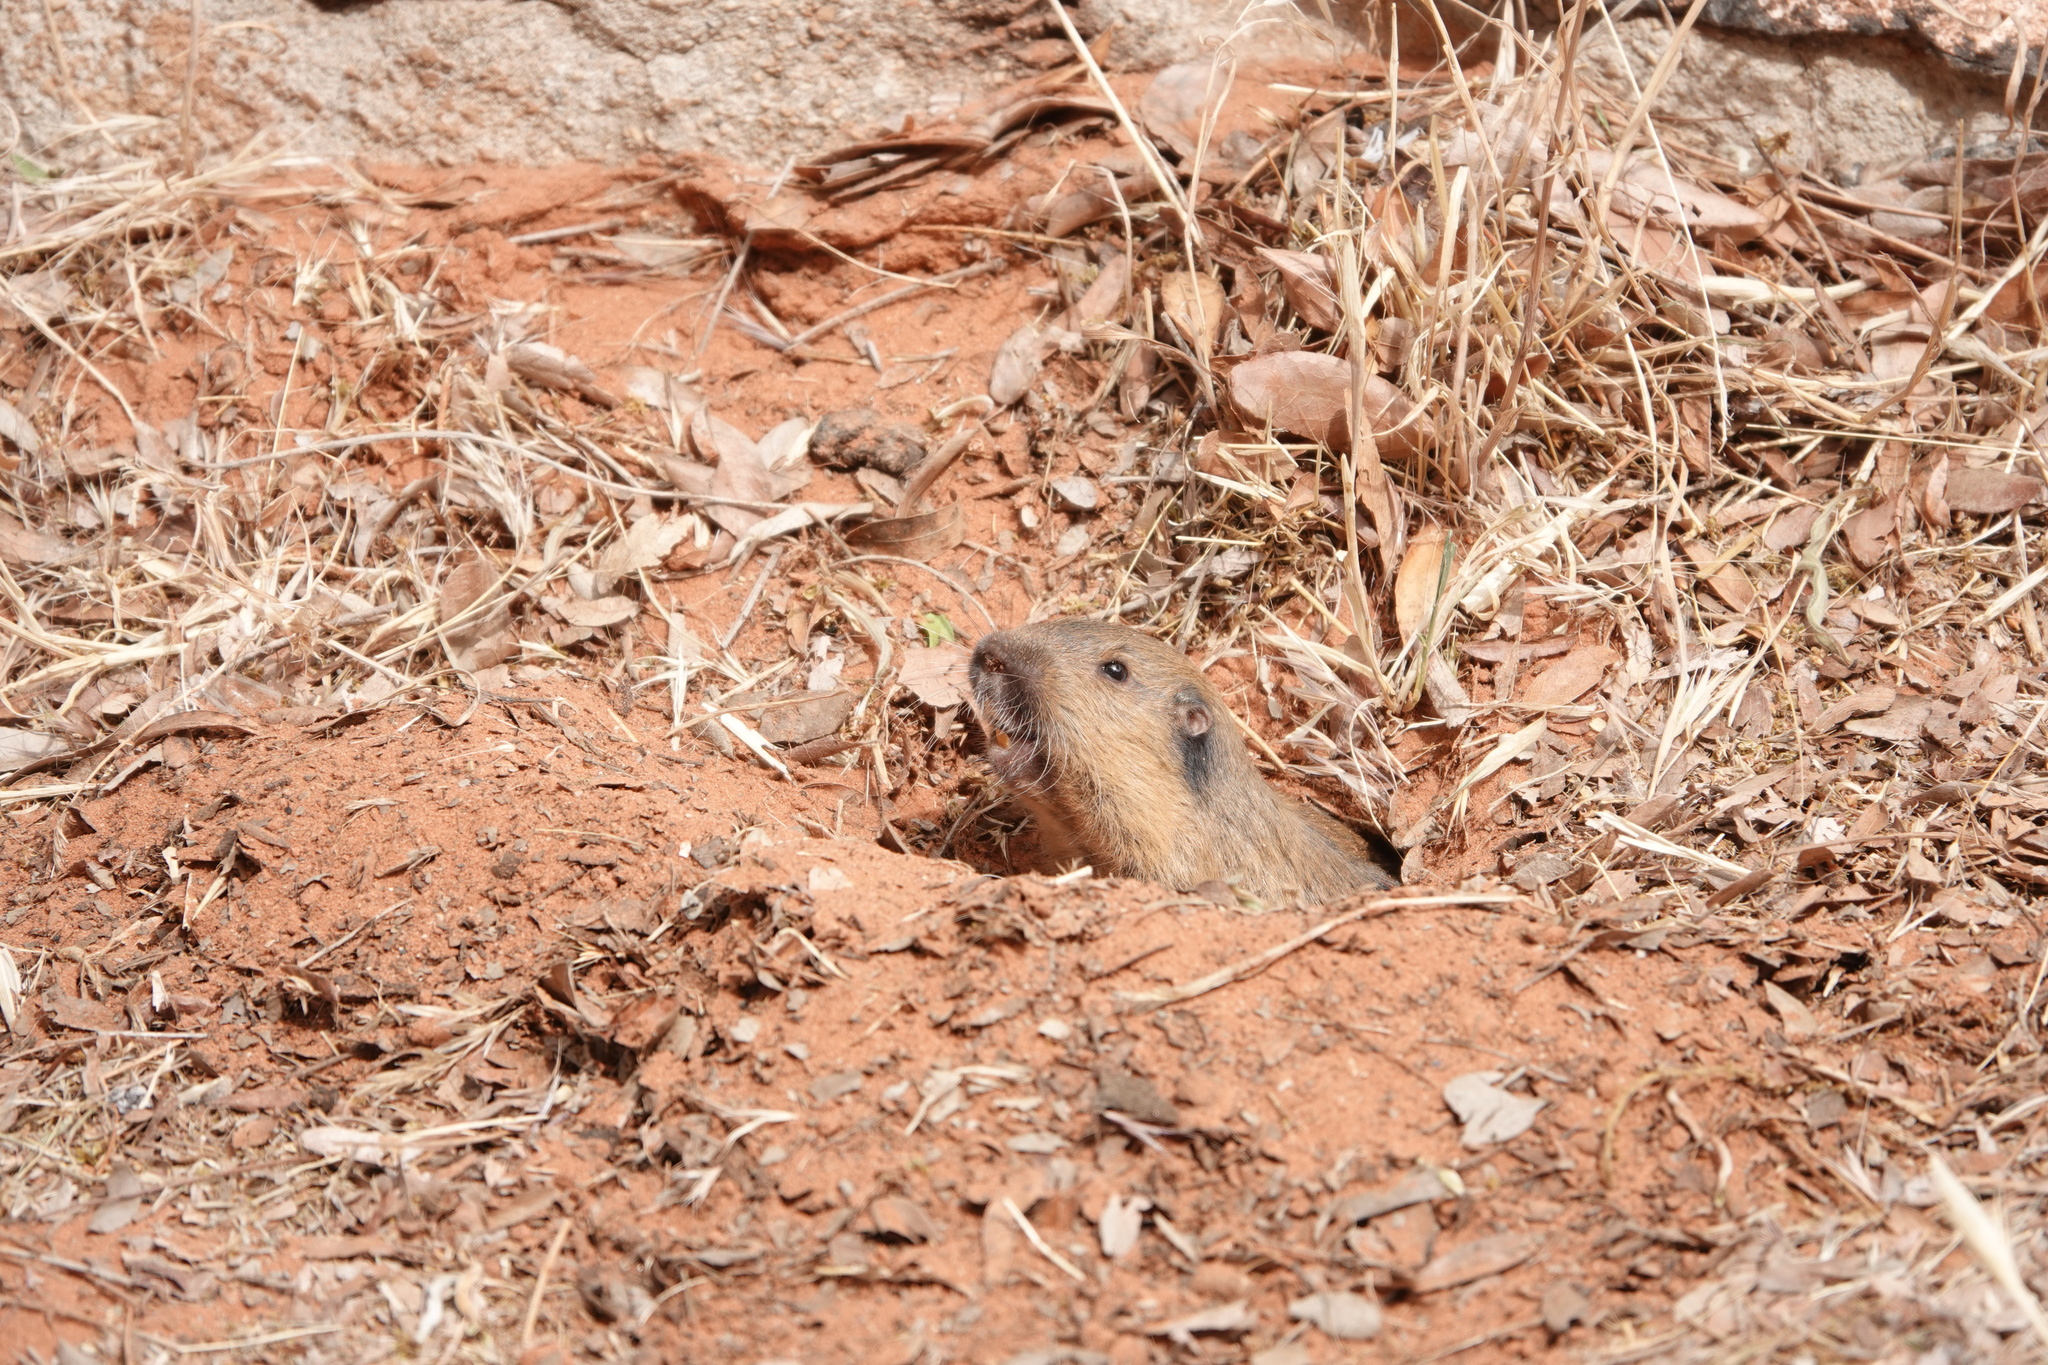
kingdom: Animalia
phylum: Chordata
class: Mammalia
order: Rodentia
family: Geomyidae
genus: Thomomys
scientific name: Thomomys bottae
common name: Botta's pocket gopher
